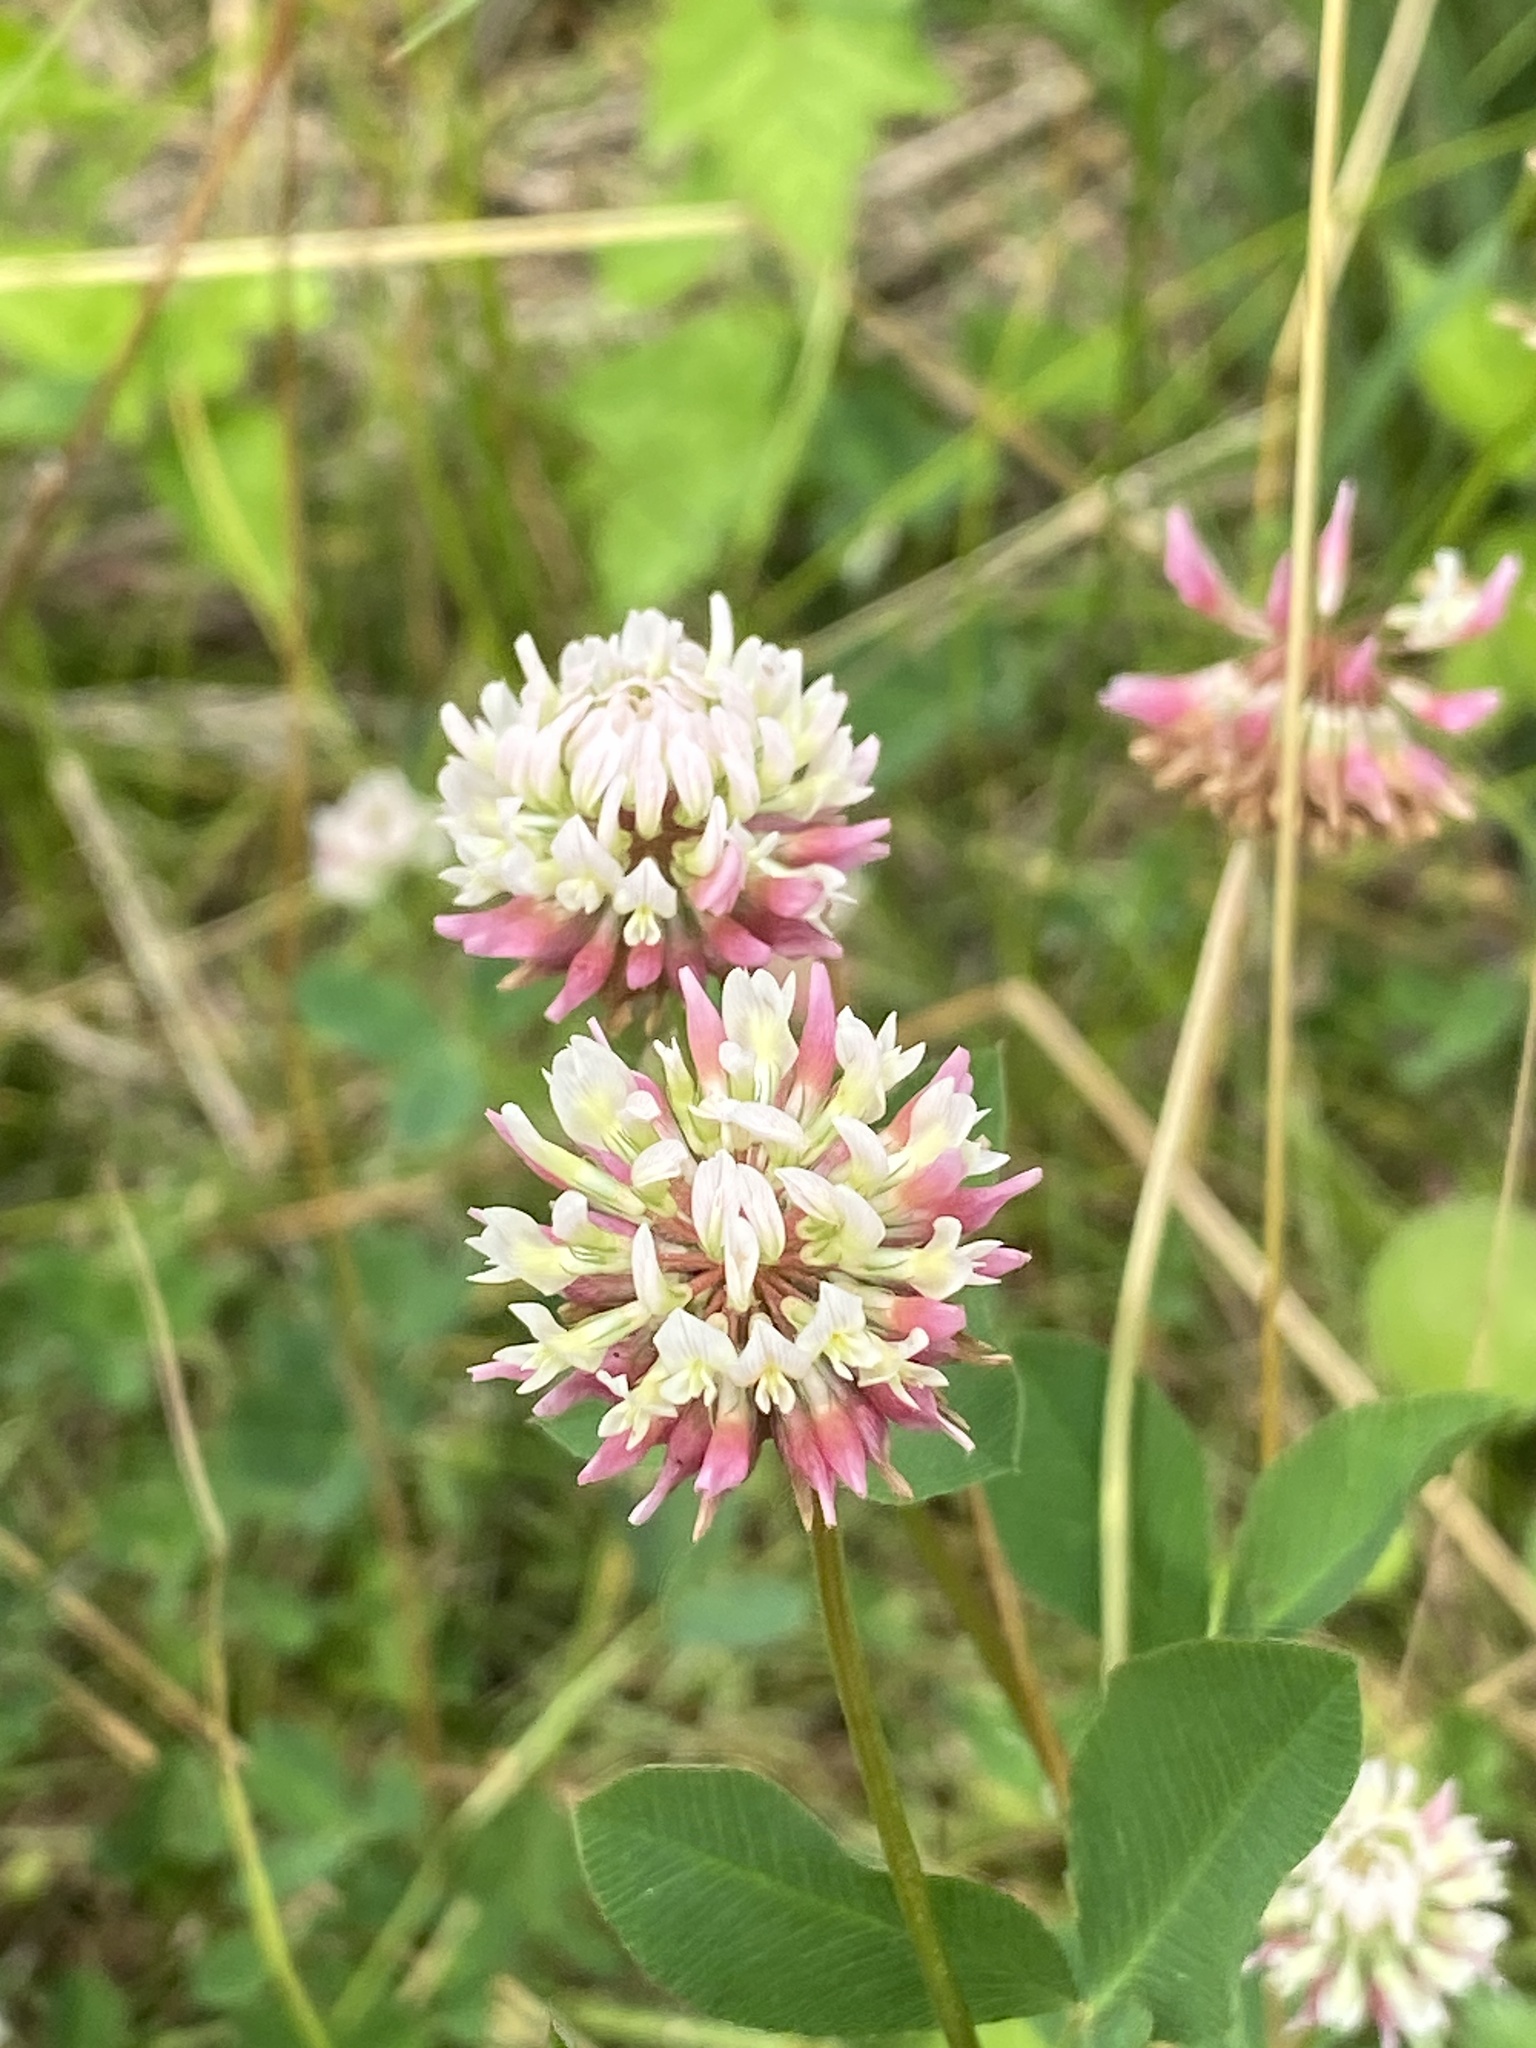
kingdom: Plantae
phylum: Tracheophyta
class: Magnoliopsida
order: Fabales
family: Fabaceae
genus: Trifolium
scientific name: Trifolium hybridum
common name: Alsike clover
